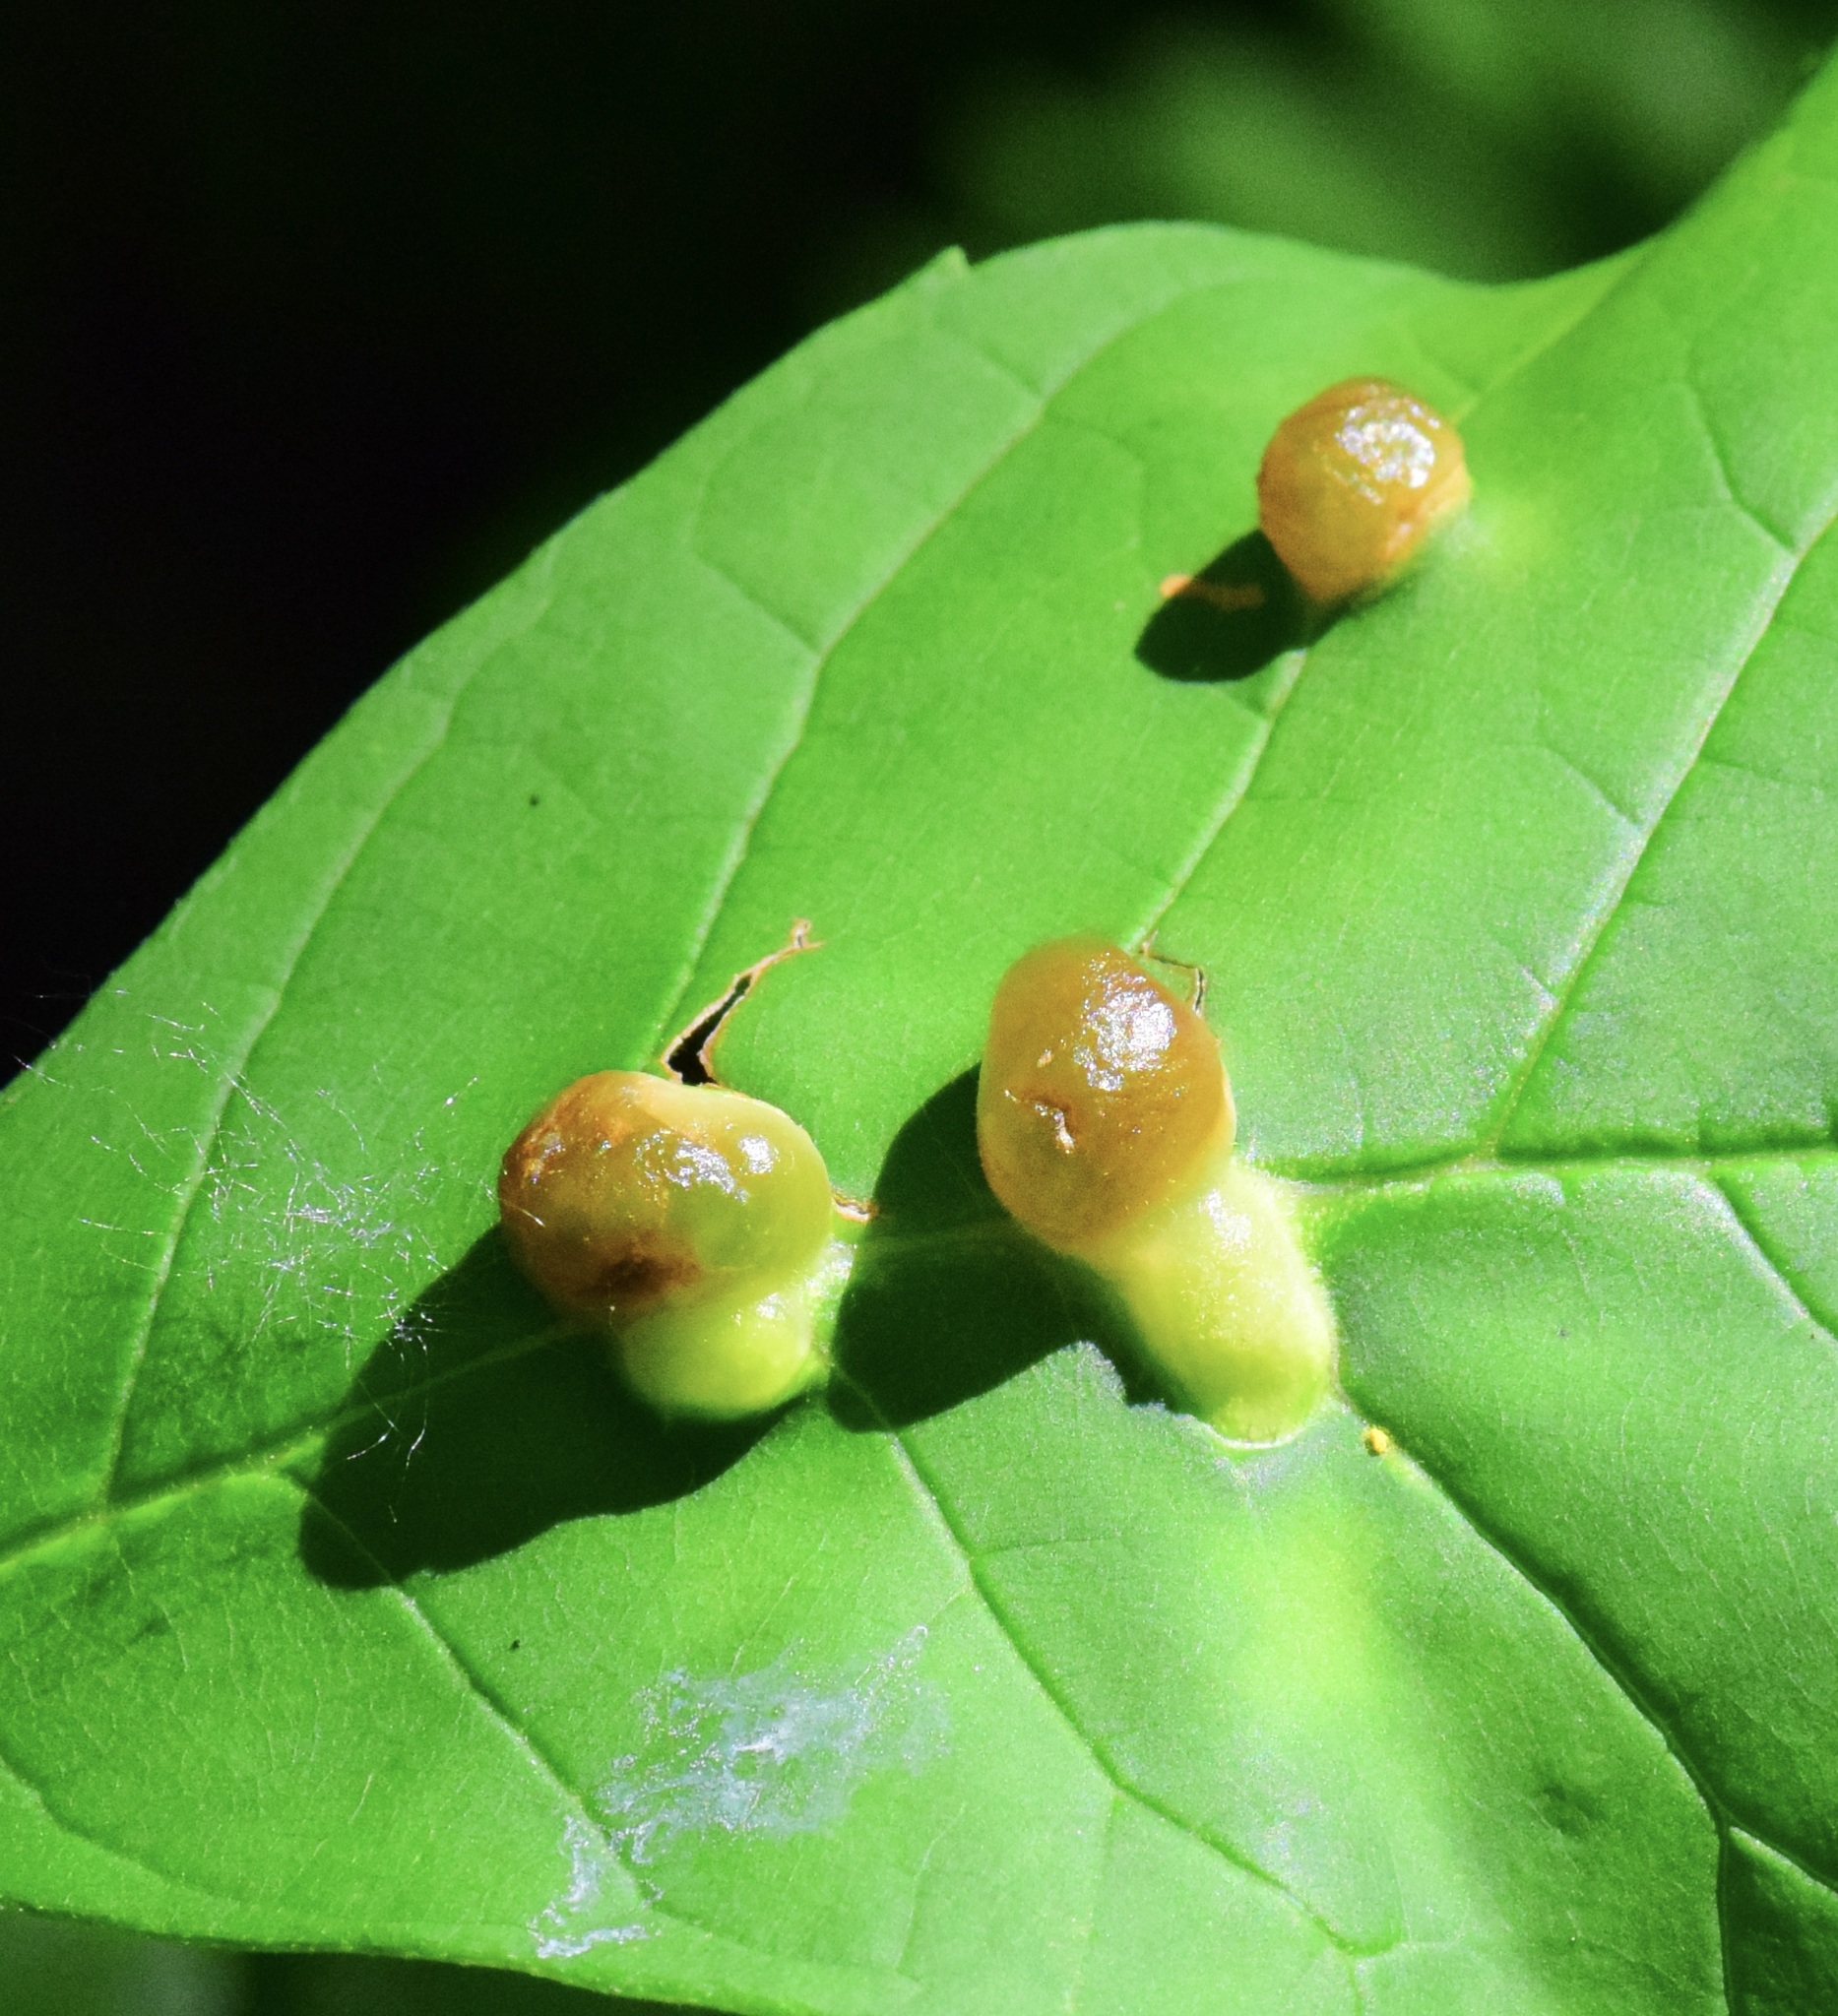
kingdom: Animalia
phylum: Arthropoda
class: Insecta
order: Diptera
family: Cecidomyiidae
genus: Dasineura
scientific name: Dasineura pellex
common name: Ash bullet gall midge
